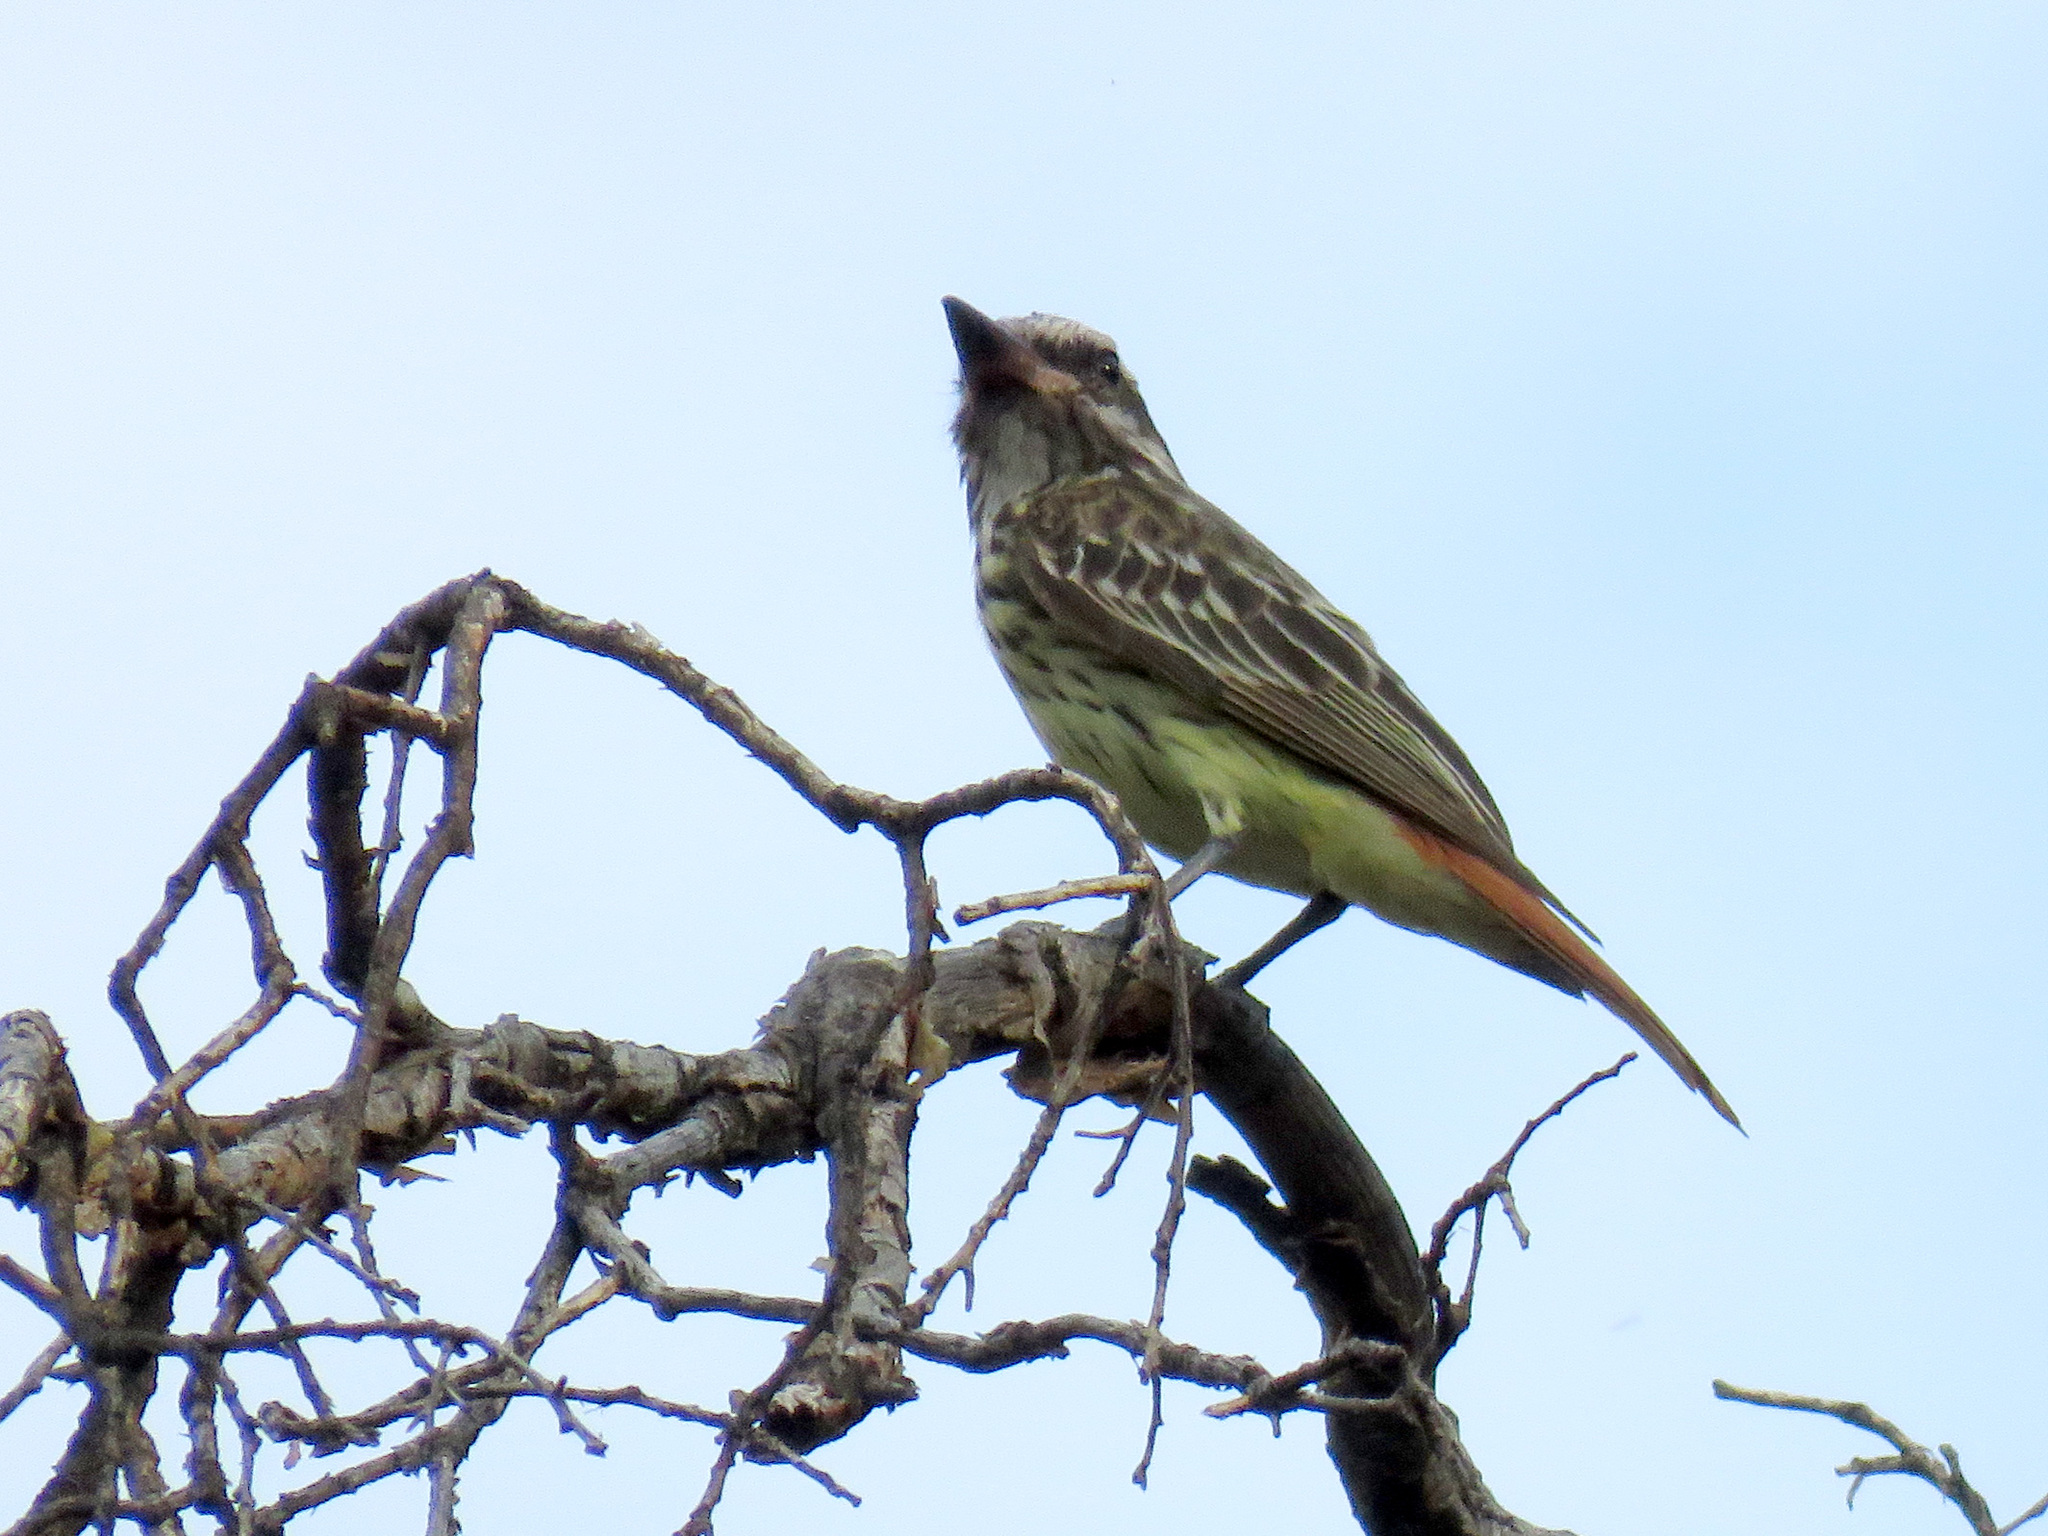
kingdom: Animalia
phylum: Chordata
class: Aves
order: Passeriformes
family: Tyrannidae
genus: Myiodynastes
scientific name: Myiodynastes luteiventris
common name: Sulphur-bellied flycatcher
